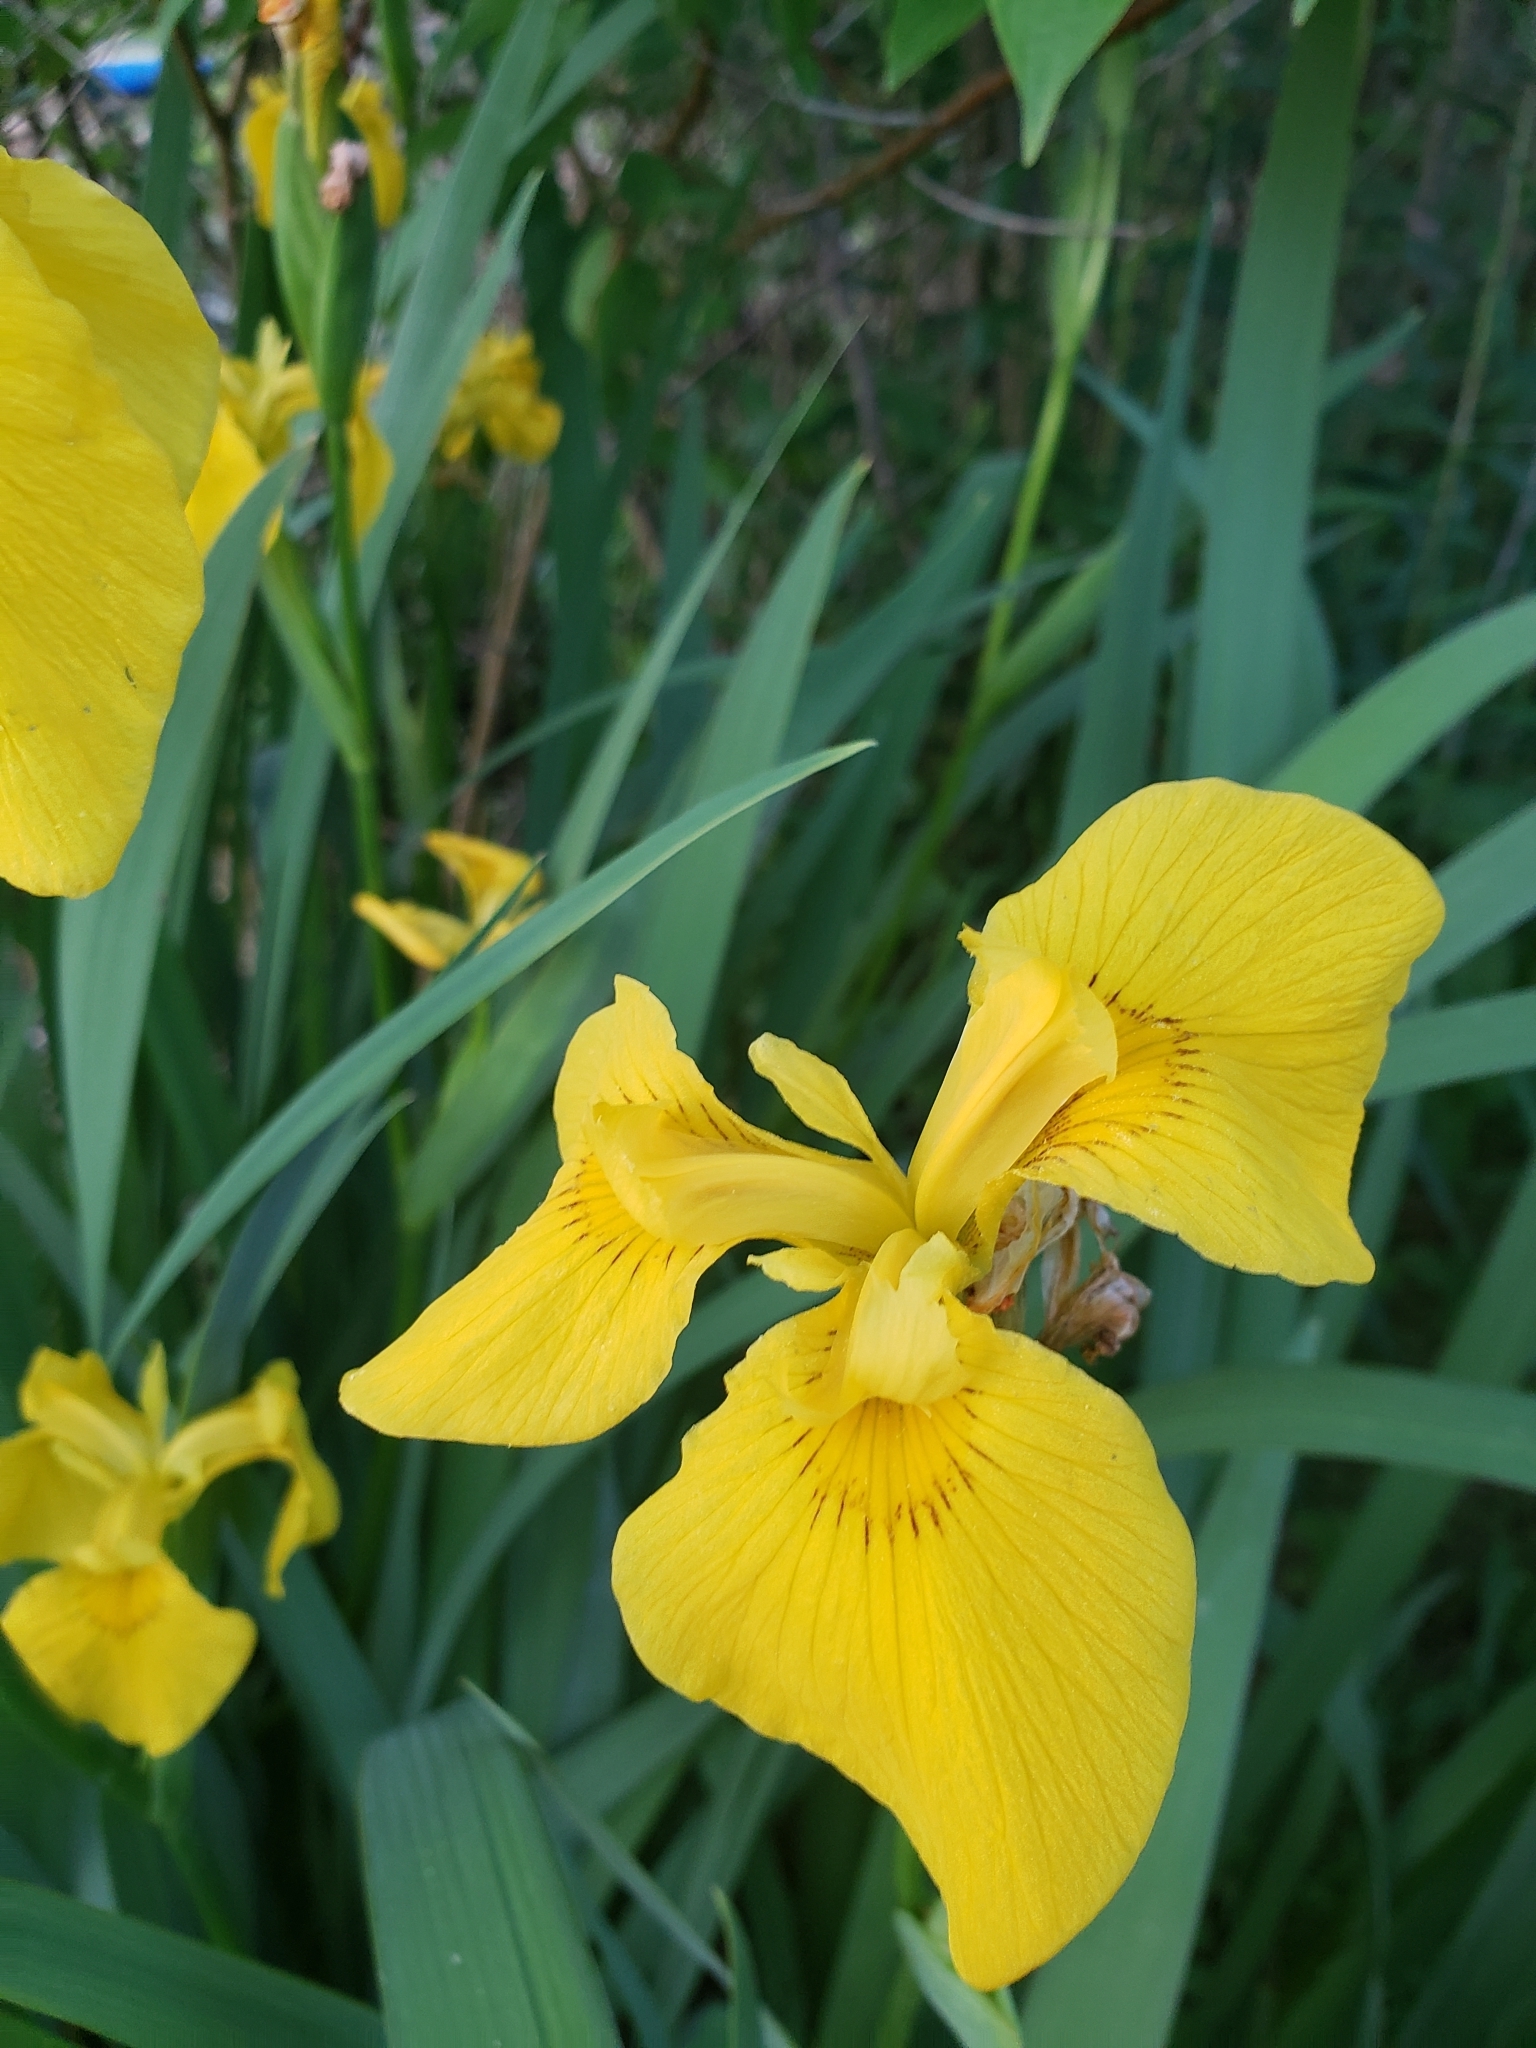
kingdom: Plantae
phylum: Tracheophyta
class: Liliopsida
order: Asparagales
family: Iridaceae
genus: Iris
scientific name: Iris pseudacorus
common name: Yellow flag
